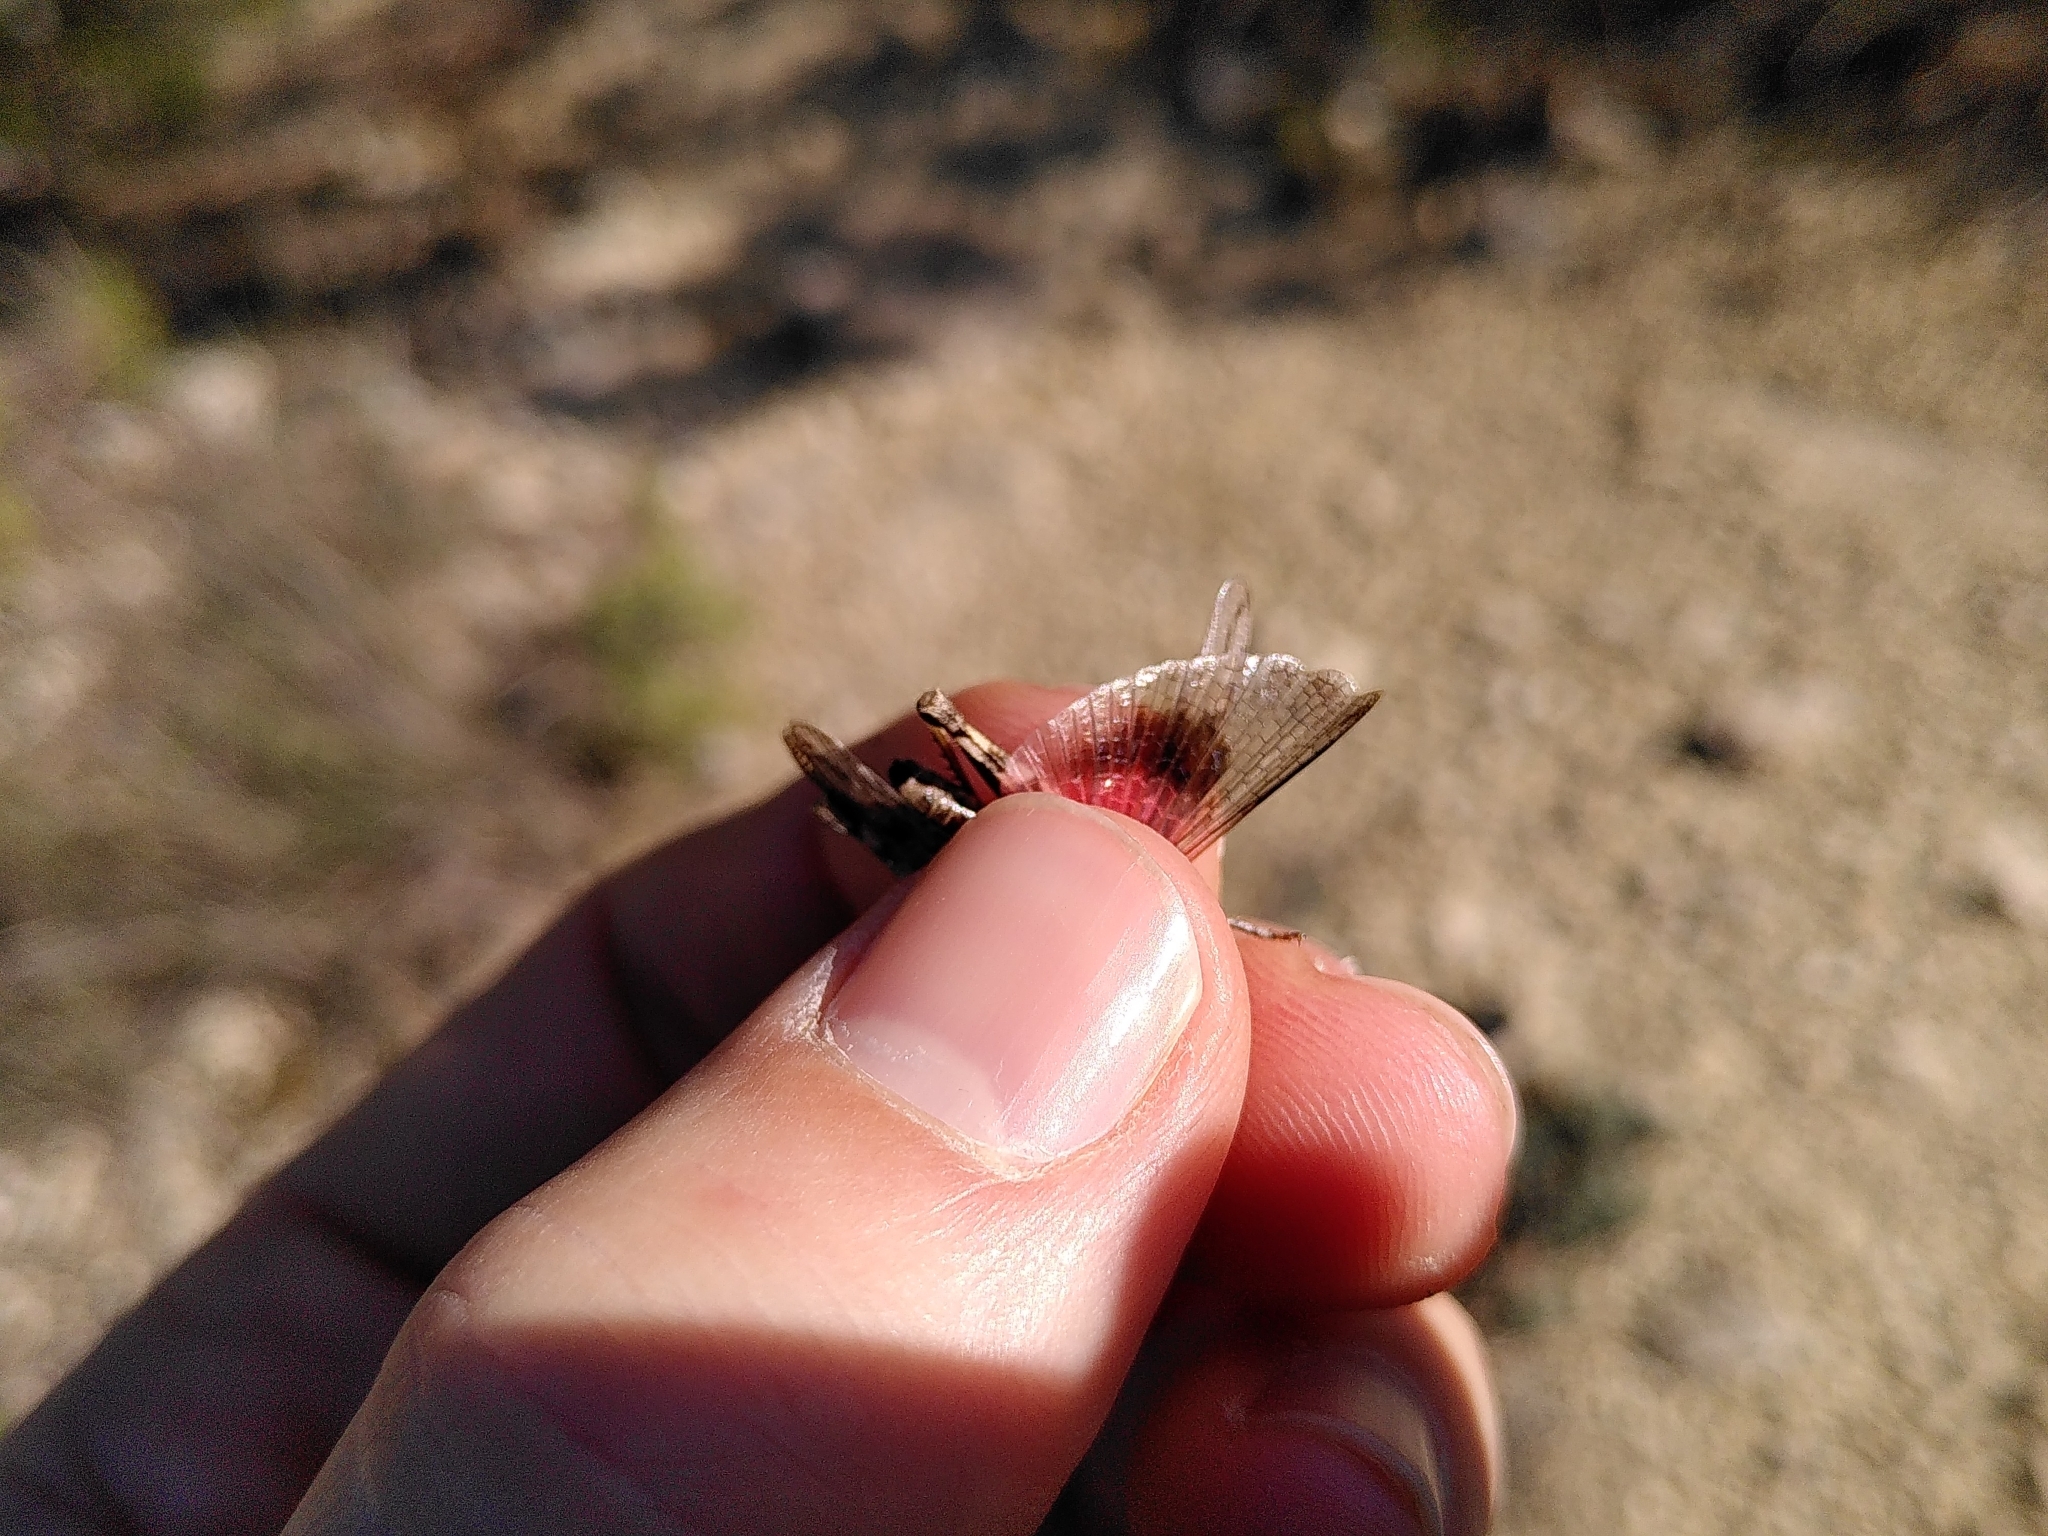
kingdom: Animalia
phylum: Arthropoda
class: Insecta
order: Orthoptera
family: Acrididae
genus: Acrotylus
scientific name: Acrotylus fischeri
